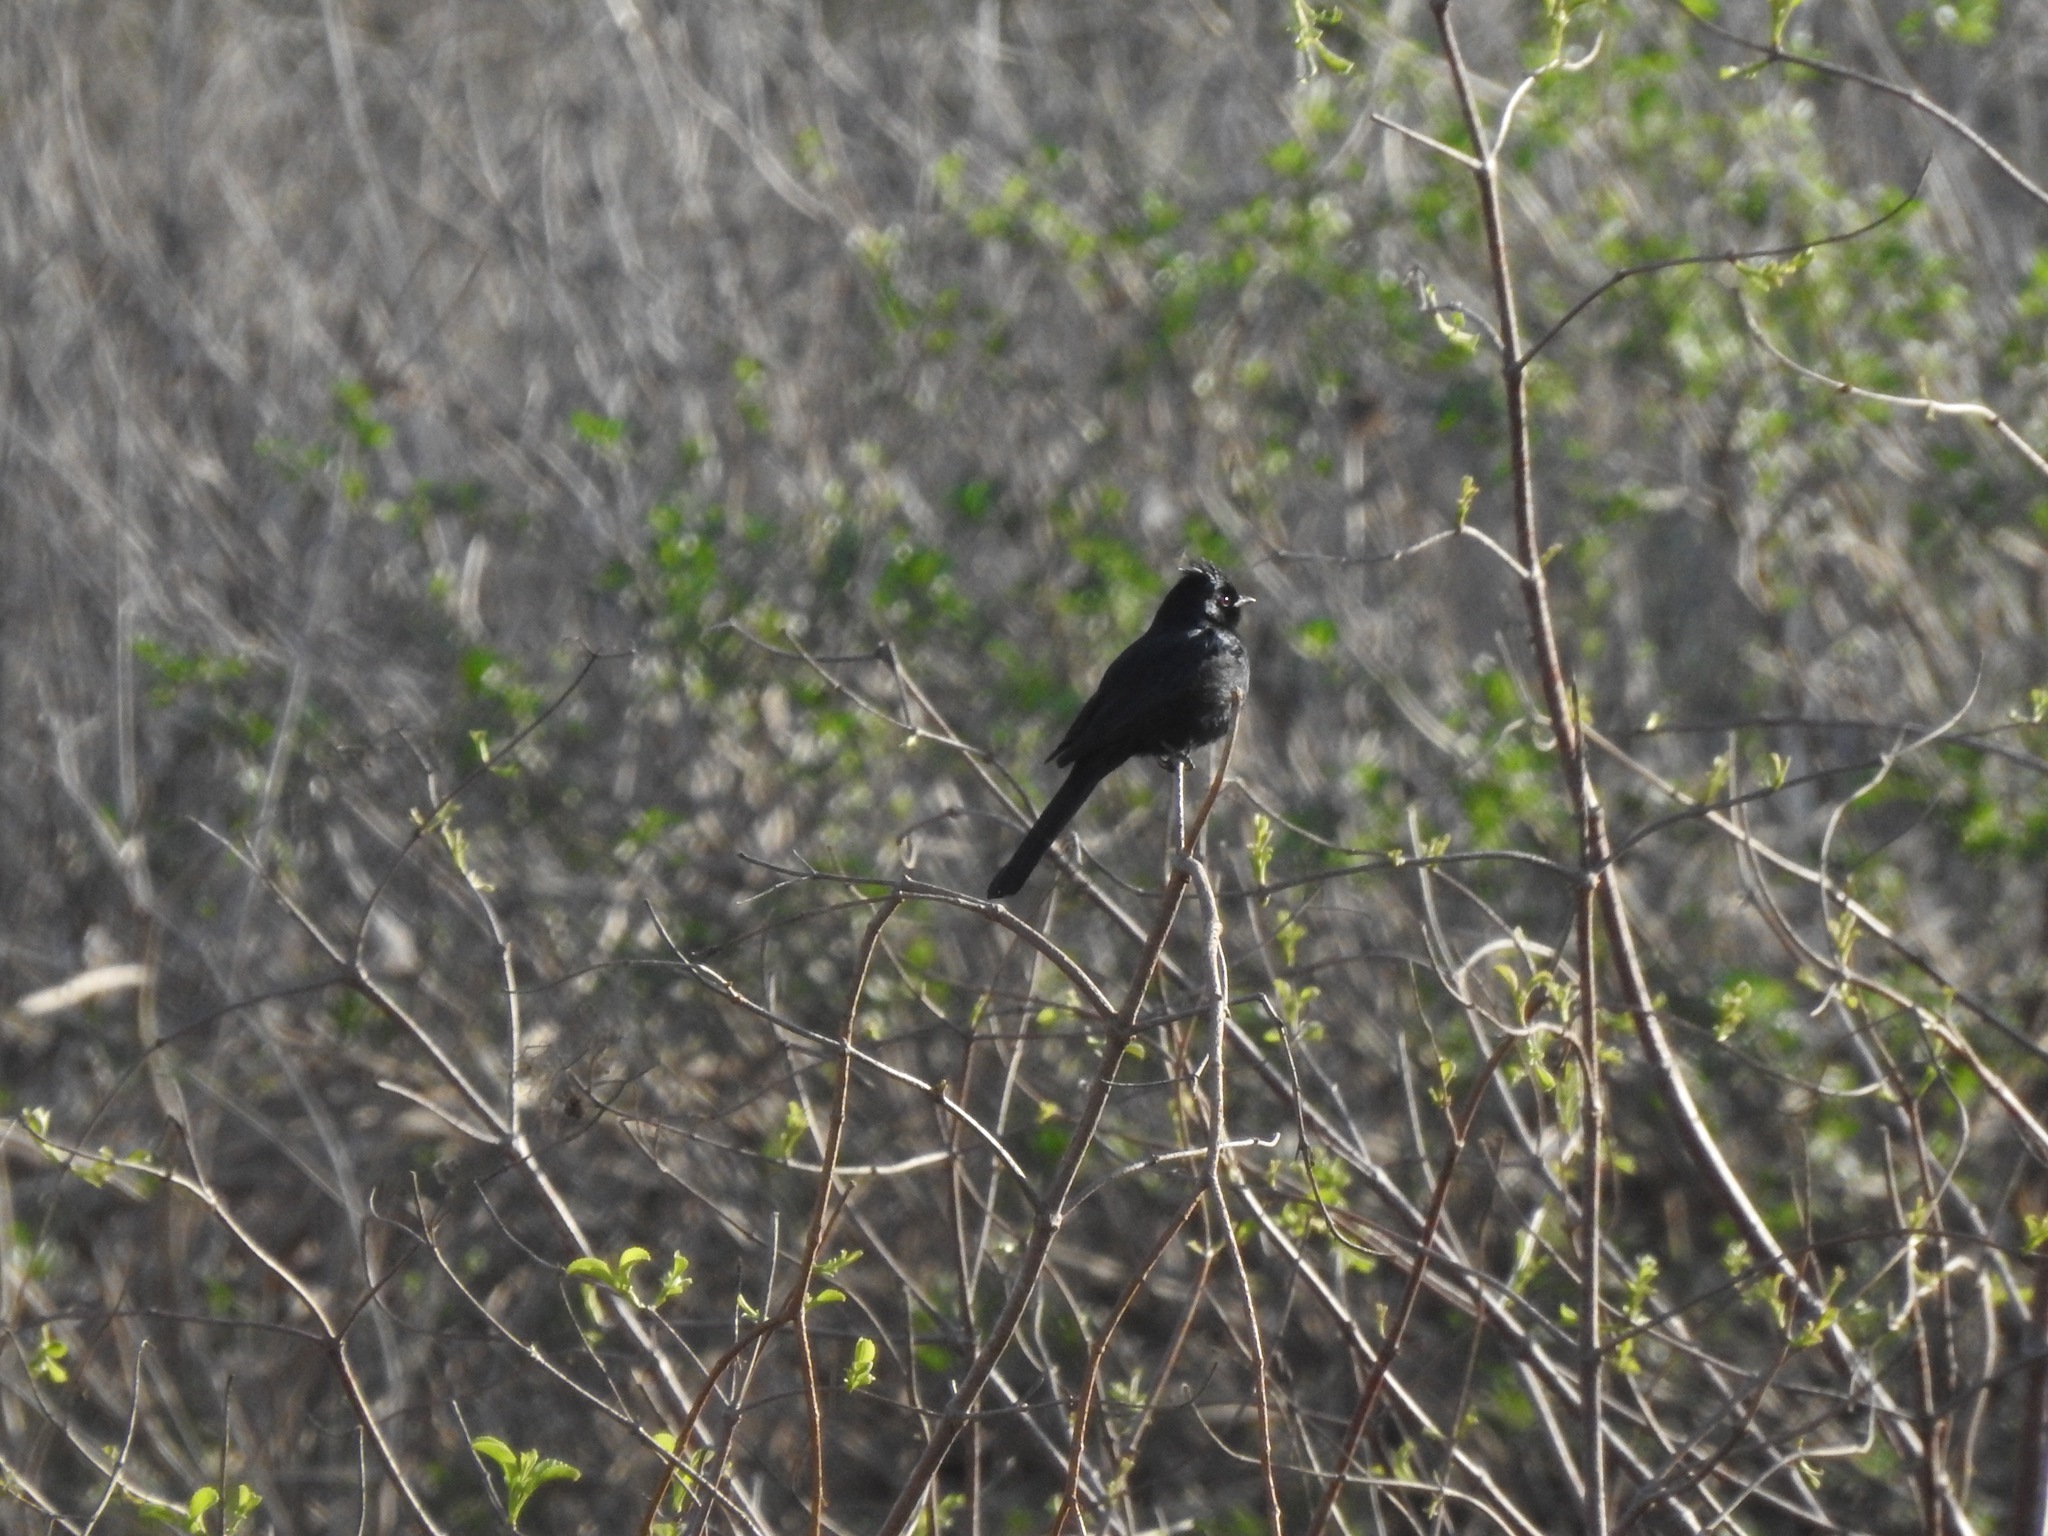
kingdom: Animalia
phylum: Chordata
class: Aves
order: Passeriformes
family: Ptilogonatidae
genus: Phainopepla
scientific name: Phainopepla nitens
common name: Phainopepla
